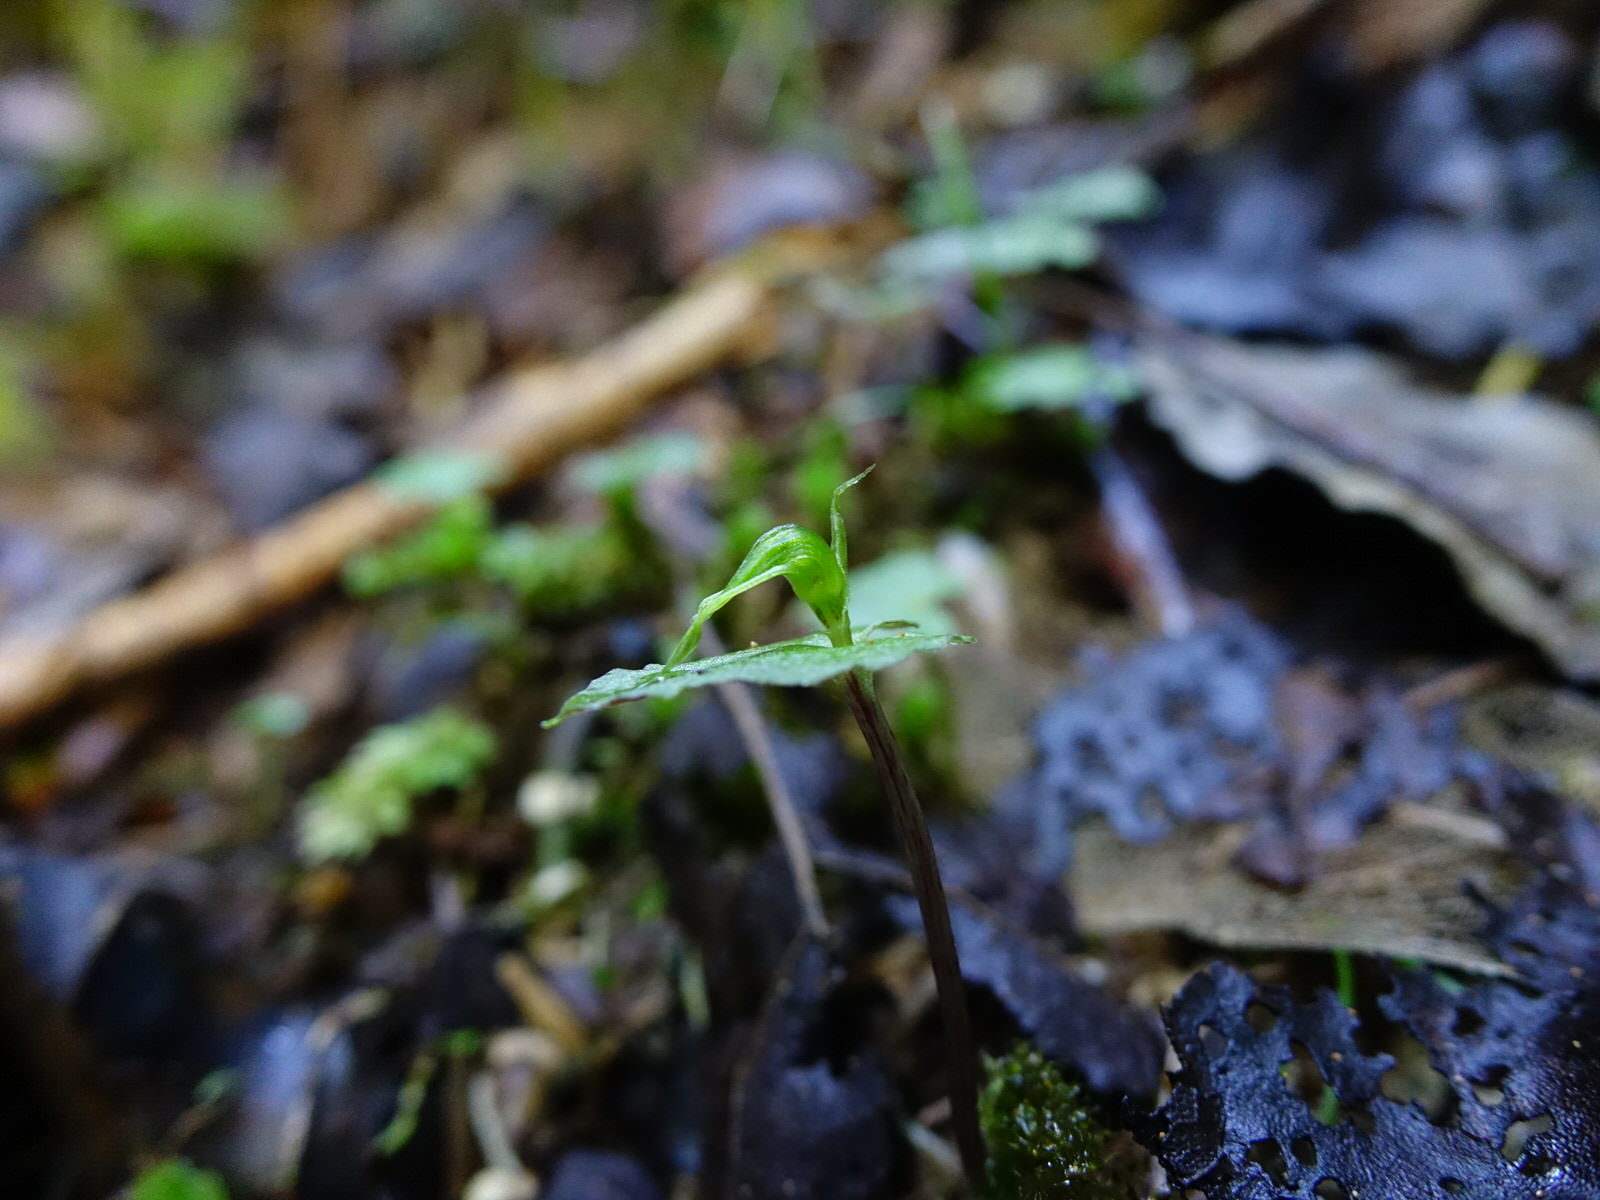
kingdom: Plantae
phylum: Tracheophyta
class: Liliopsida
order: Asparagales
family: Orchidaceae
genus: Corybas
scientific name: Corybas acuminatus
